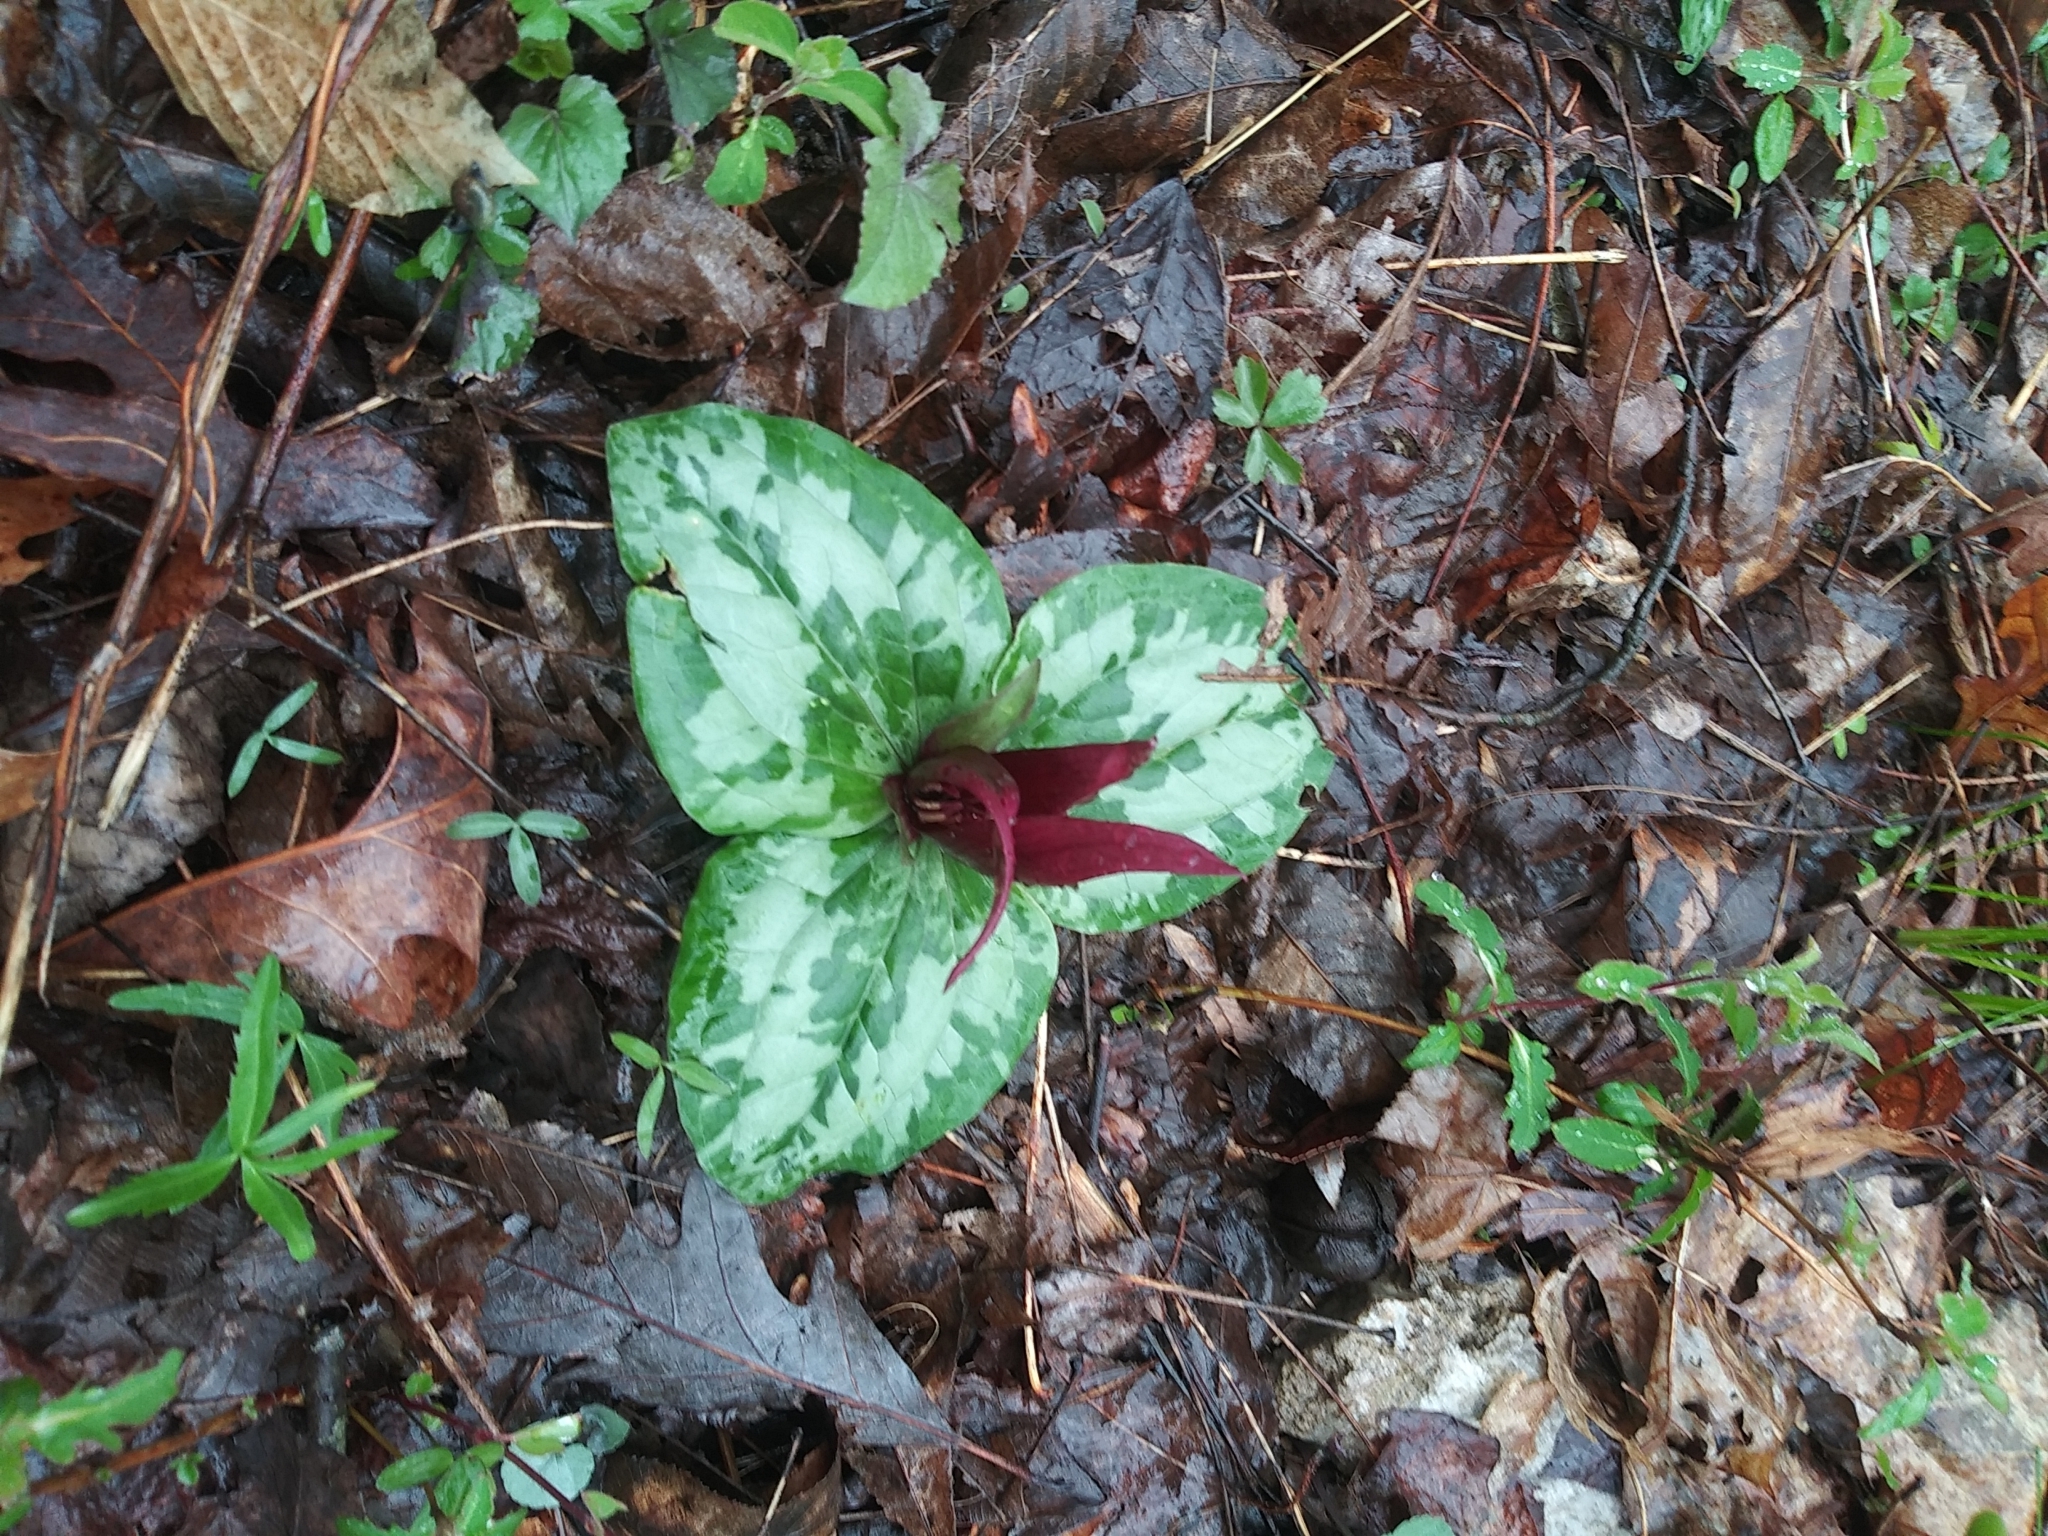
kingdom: Plantae
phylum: Tracheophyta
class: Liliopsida
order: Liliales
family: Melanthiaceae
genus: Trillium
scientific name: Trillium decumbens
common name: Decumbent trillium
